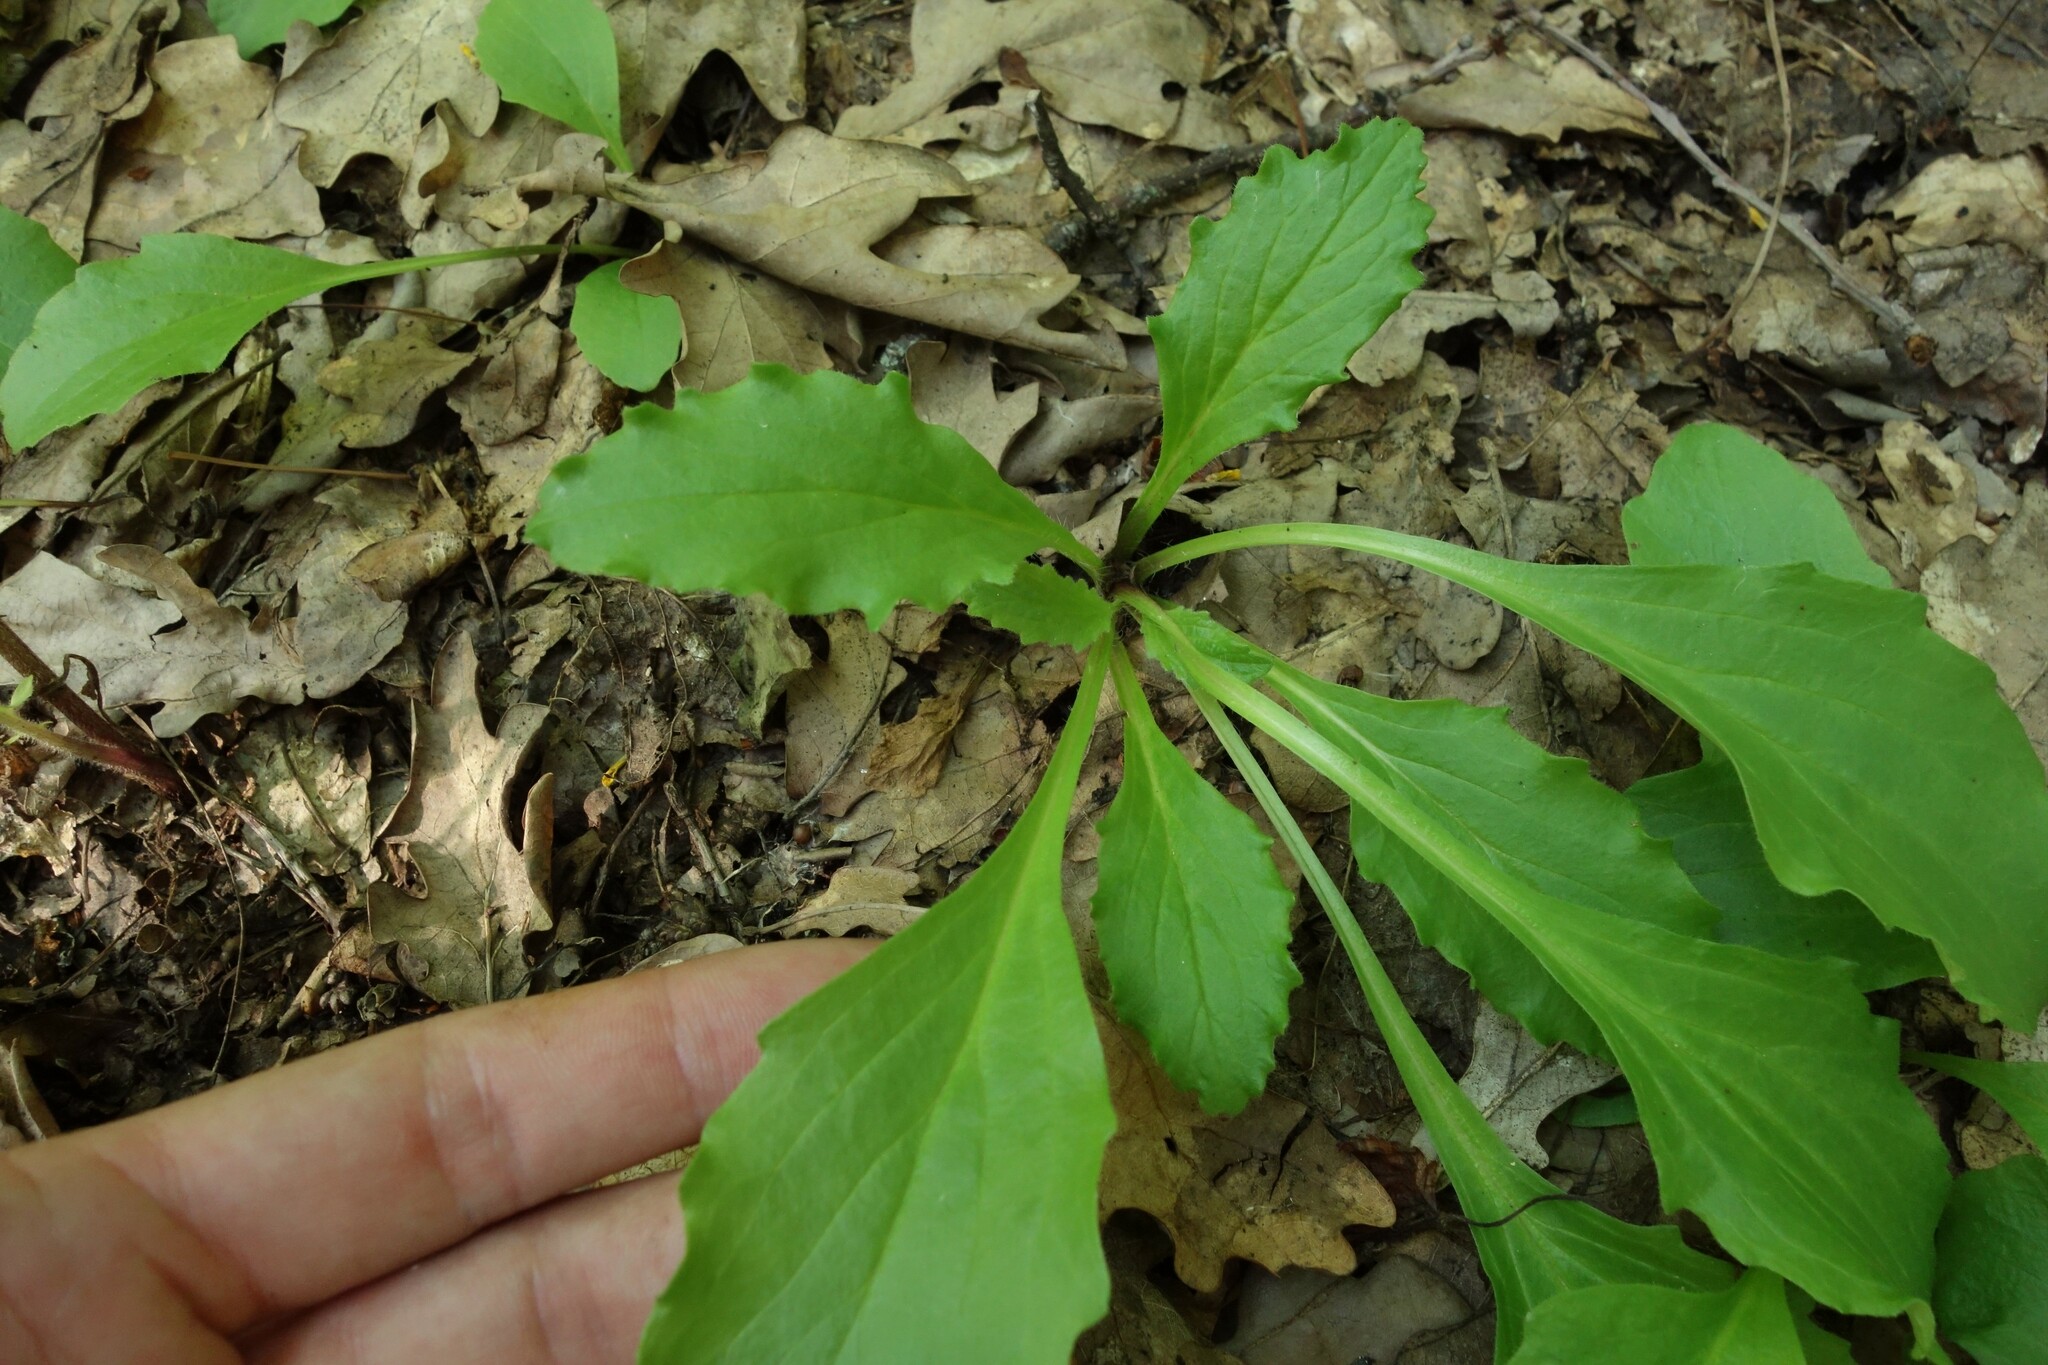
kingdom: Plantae
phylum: Tracheophyta
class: Magnoliopsida
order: Lamiales
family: Lamiaceae
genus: Ajuga
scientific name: Ajuga genevensis
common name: Blue bugle
